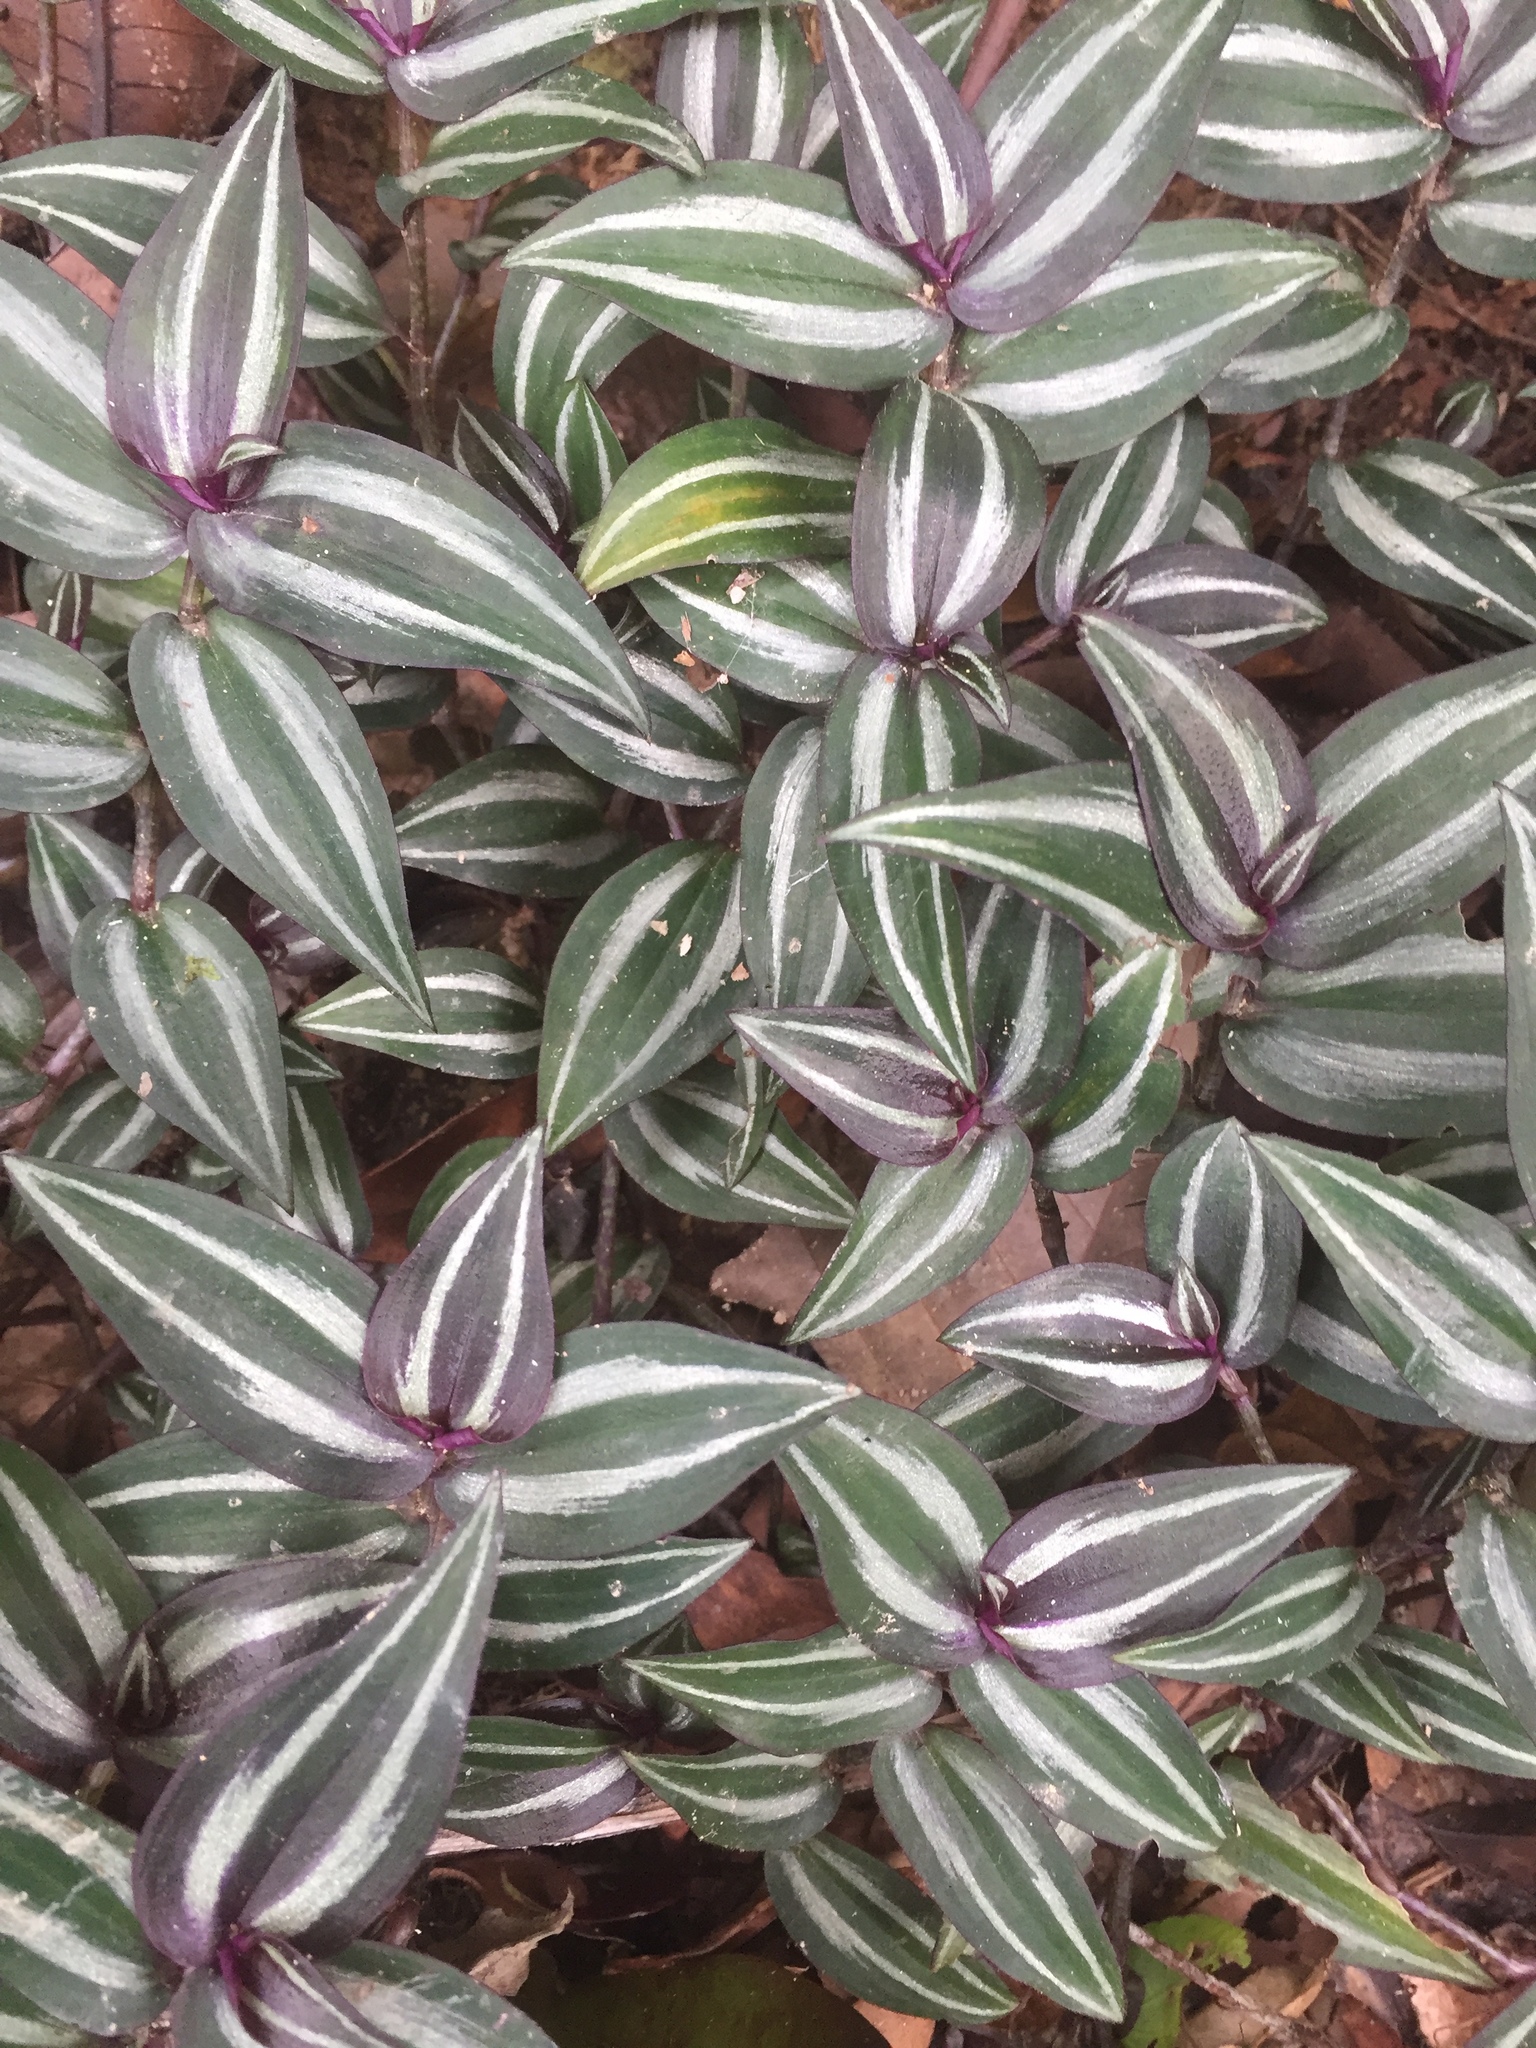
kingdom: Plantae
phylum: Tracheophyta
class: Liliopsida
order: Commelinales
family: Commelinaceae
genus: Tradescantia
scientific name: Tradescantia zebrina
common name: Inchplant
